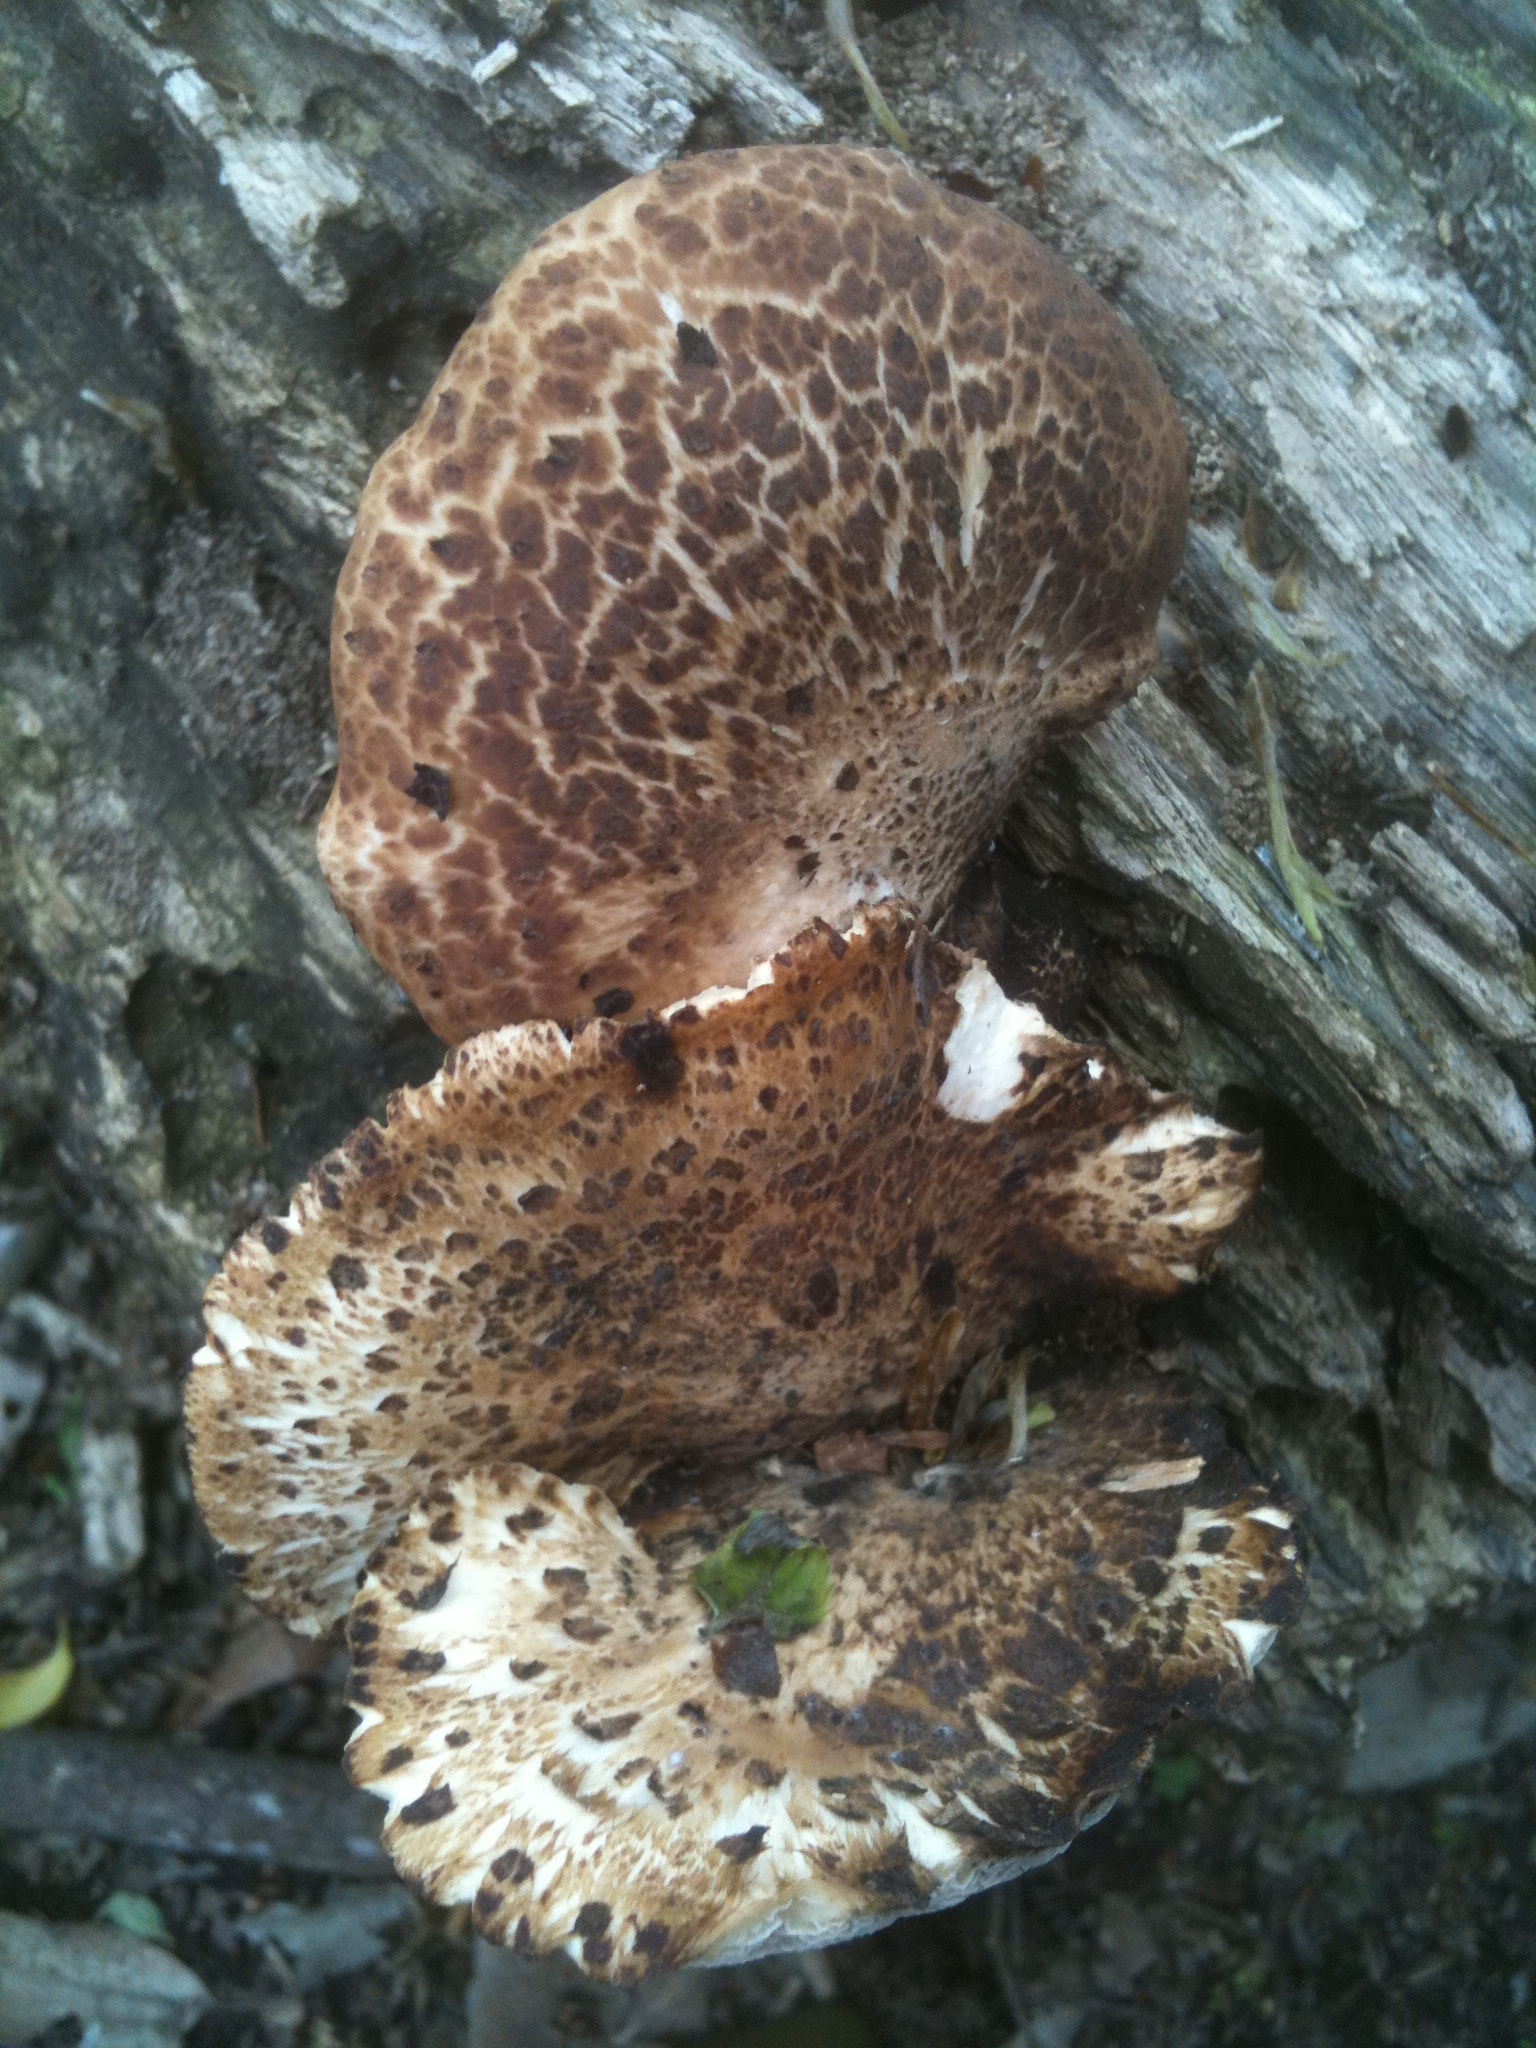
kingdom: Fungi
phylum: Basidiomycota
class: Agaricomycetes
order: Polyporales
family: Polyporaceae
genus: Cerioporus
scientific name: Cerioporus squamosus
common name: Dryad's saddle
